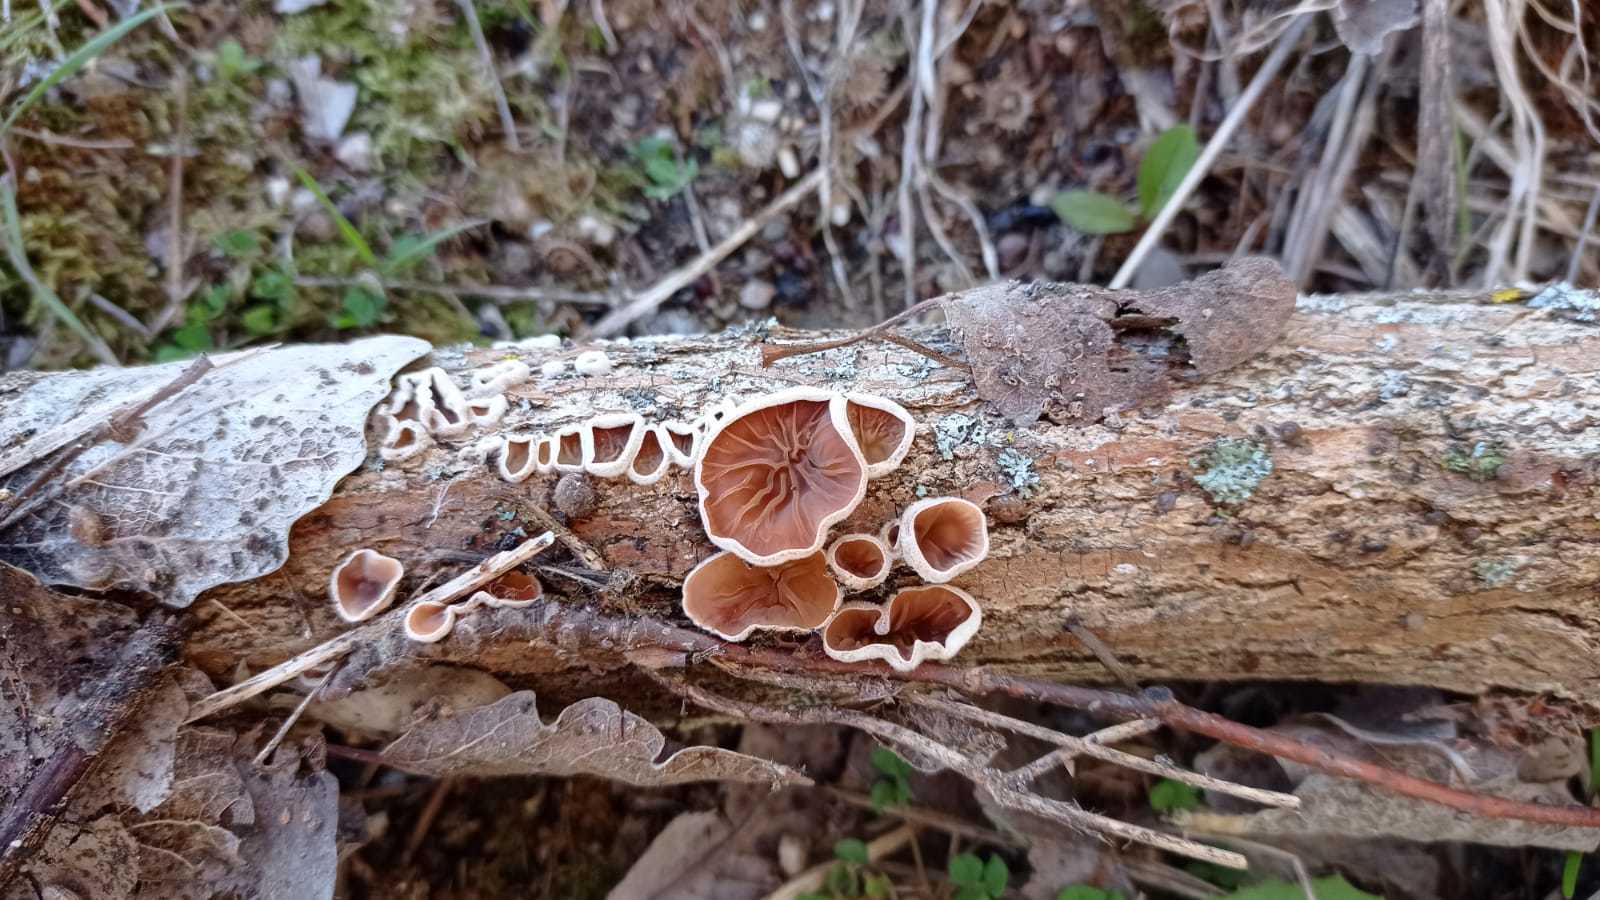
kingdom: Fungi
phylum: Basidiomycota
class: Agaricomycetes
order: Agaricales
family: Schizophyllaceae
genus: Schizophyllum
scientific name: Schizophyllum amplum
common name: Poplar bells
